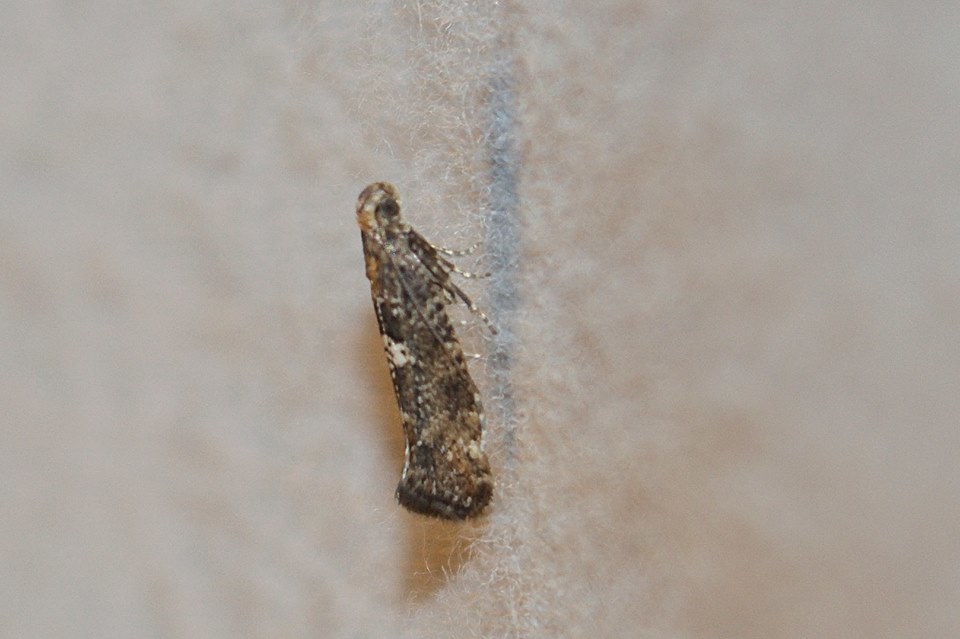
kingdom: Animalia
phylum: Arthropoda
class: Insecta
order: Lepidoptera
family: Glyphipterigidae
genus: Acrolepia
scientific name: Acrolepia assectella
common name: Onion leaf miner
